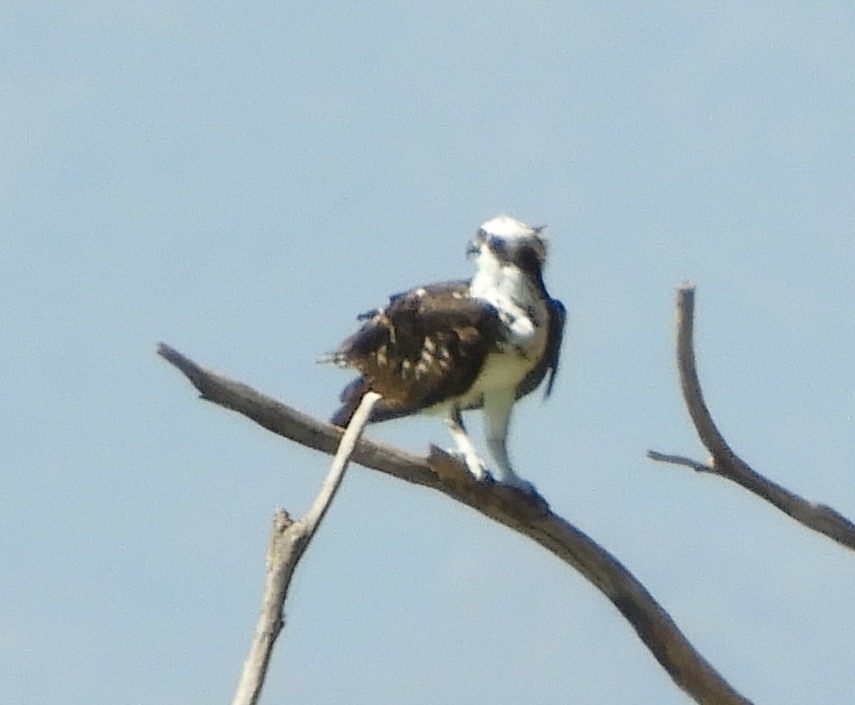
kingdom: Animalia
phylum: Chordata
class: Aves
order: Accipitriformes
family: Pandionidae
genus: Pandion
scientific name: Pandion haliaetus
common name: Osprey
